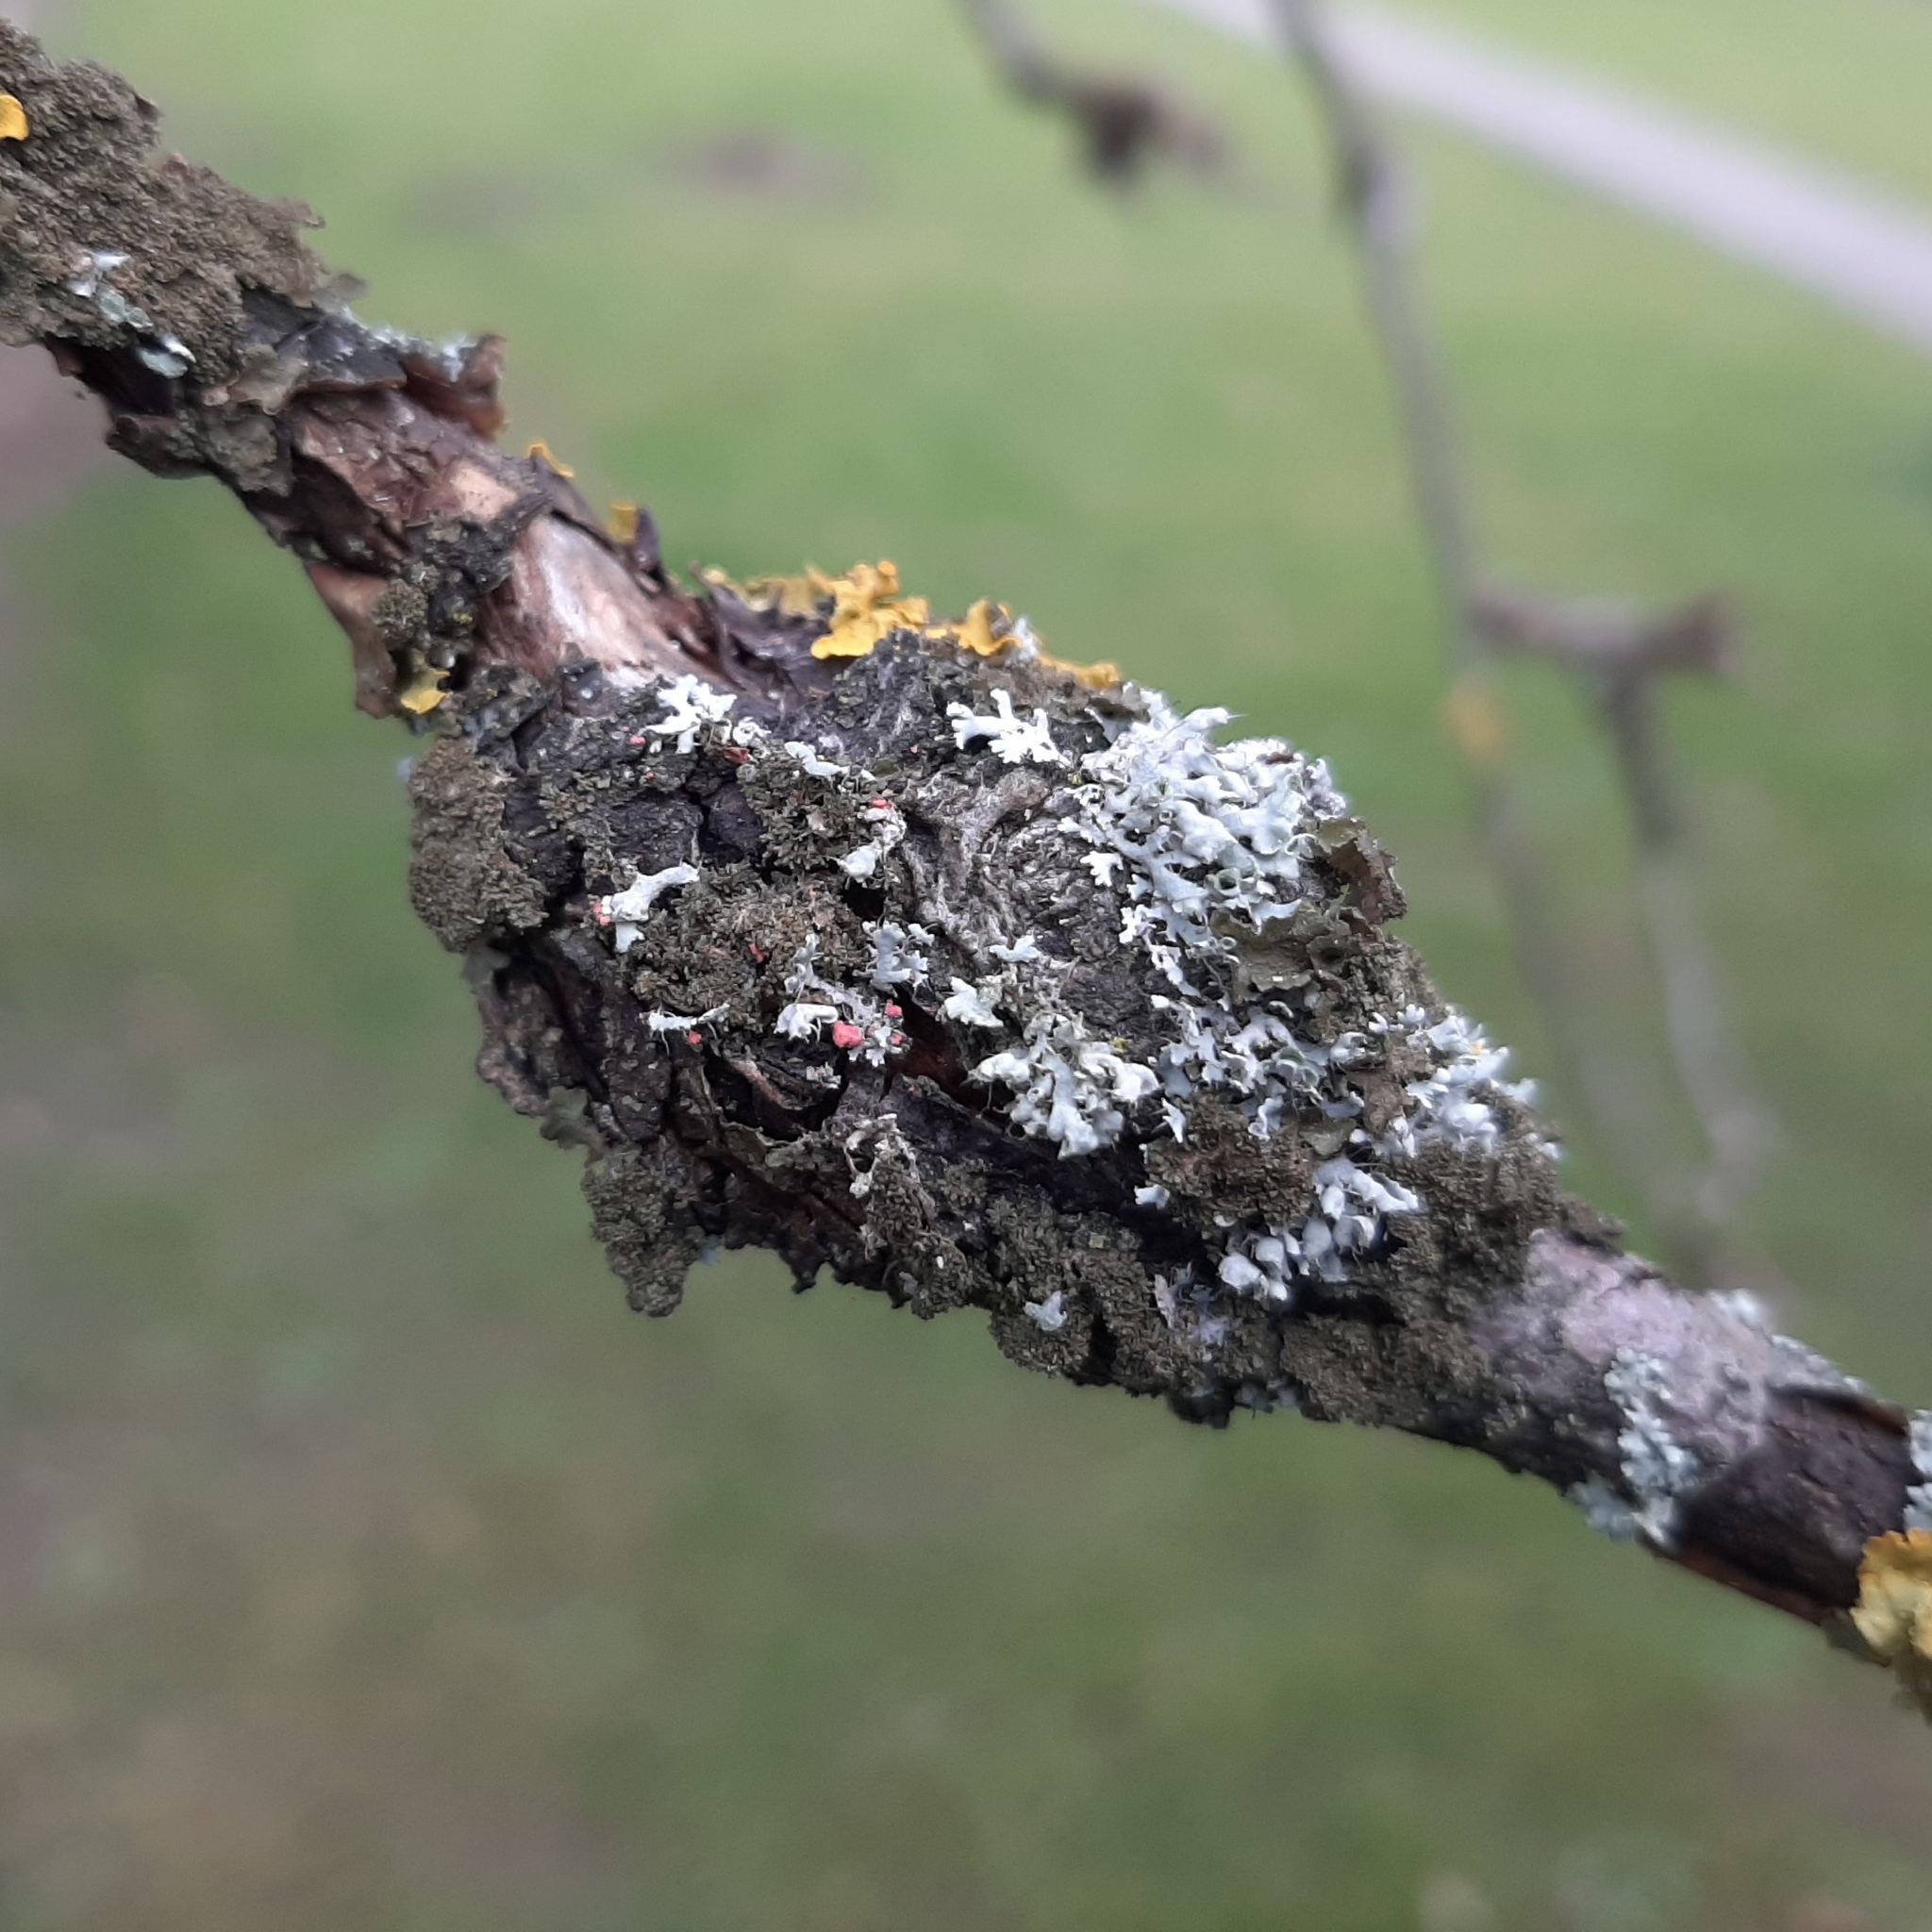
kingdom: Fungi
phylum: Ascomycota
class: Sordariomycetes
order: Hypocreales
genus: Illosporiopsis
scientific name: Illosporiopsis christiansenii
